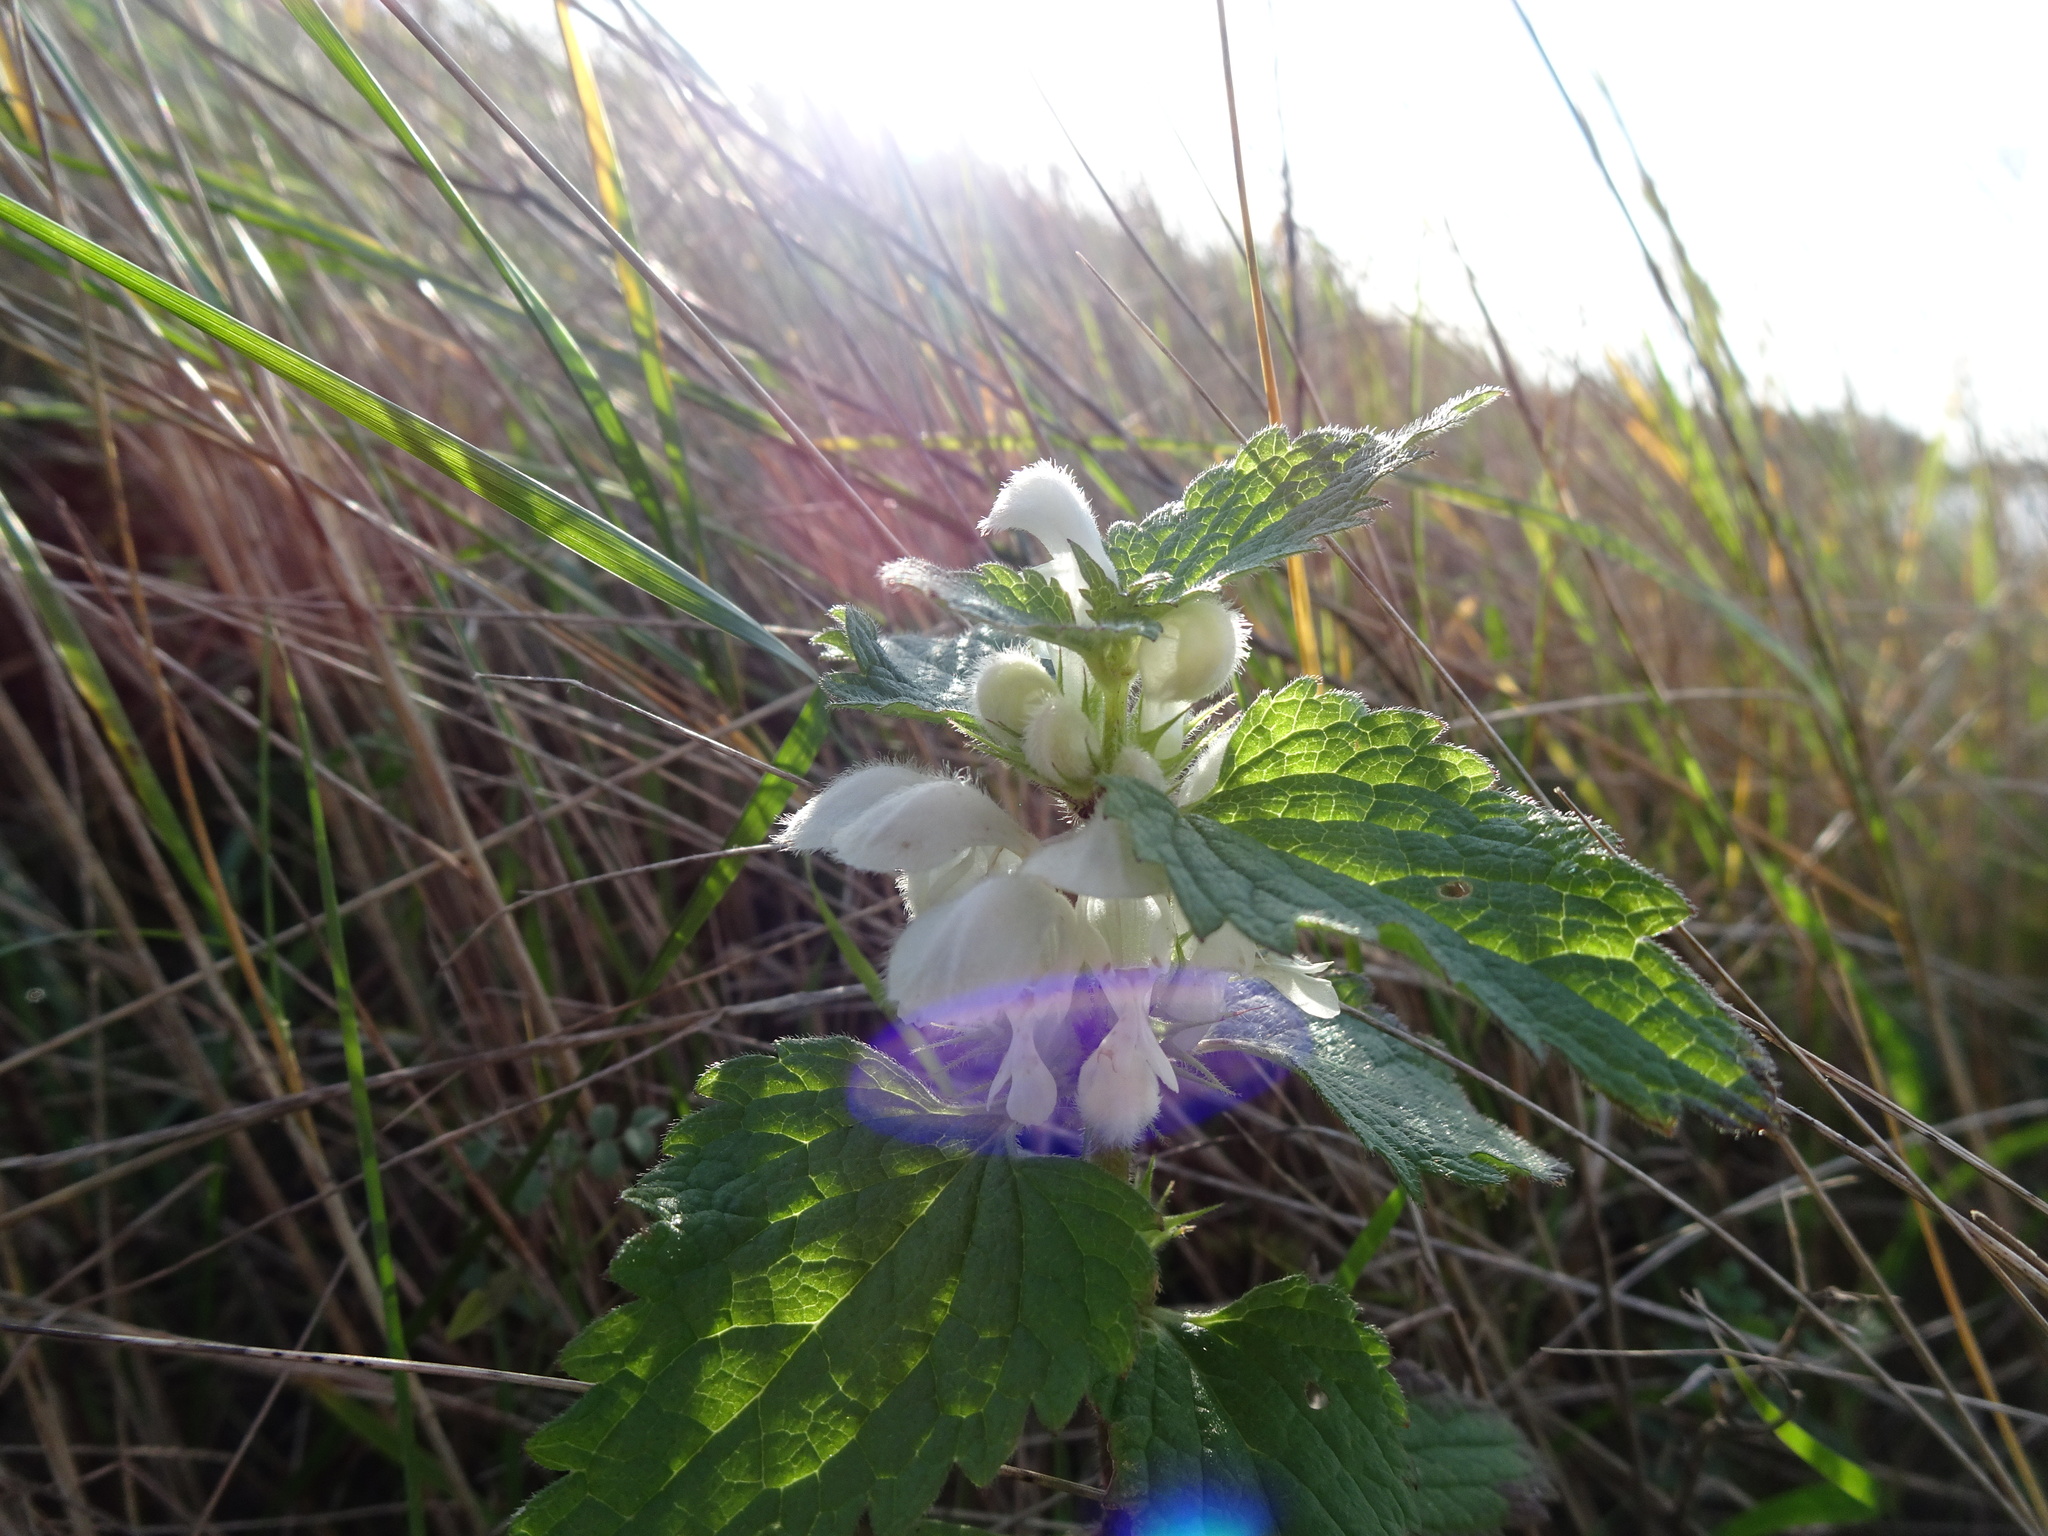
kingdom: Plantae
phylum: Tracheophyta
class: Magnoliopsida
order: Lamiales
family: Lamiaceae
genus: Lamium
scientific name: Lamium album
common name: White dead-nettle
